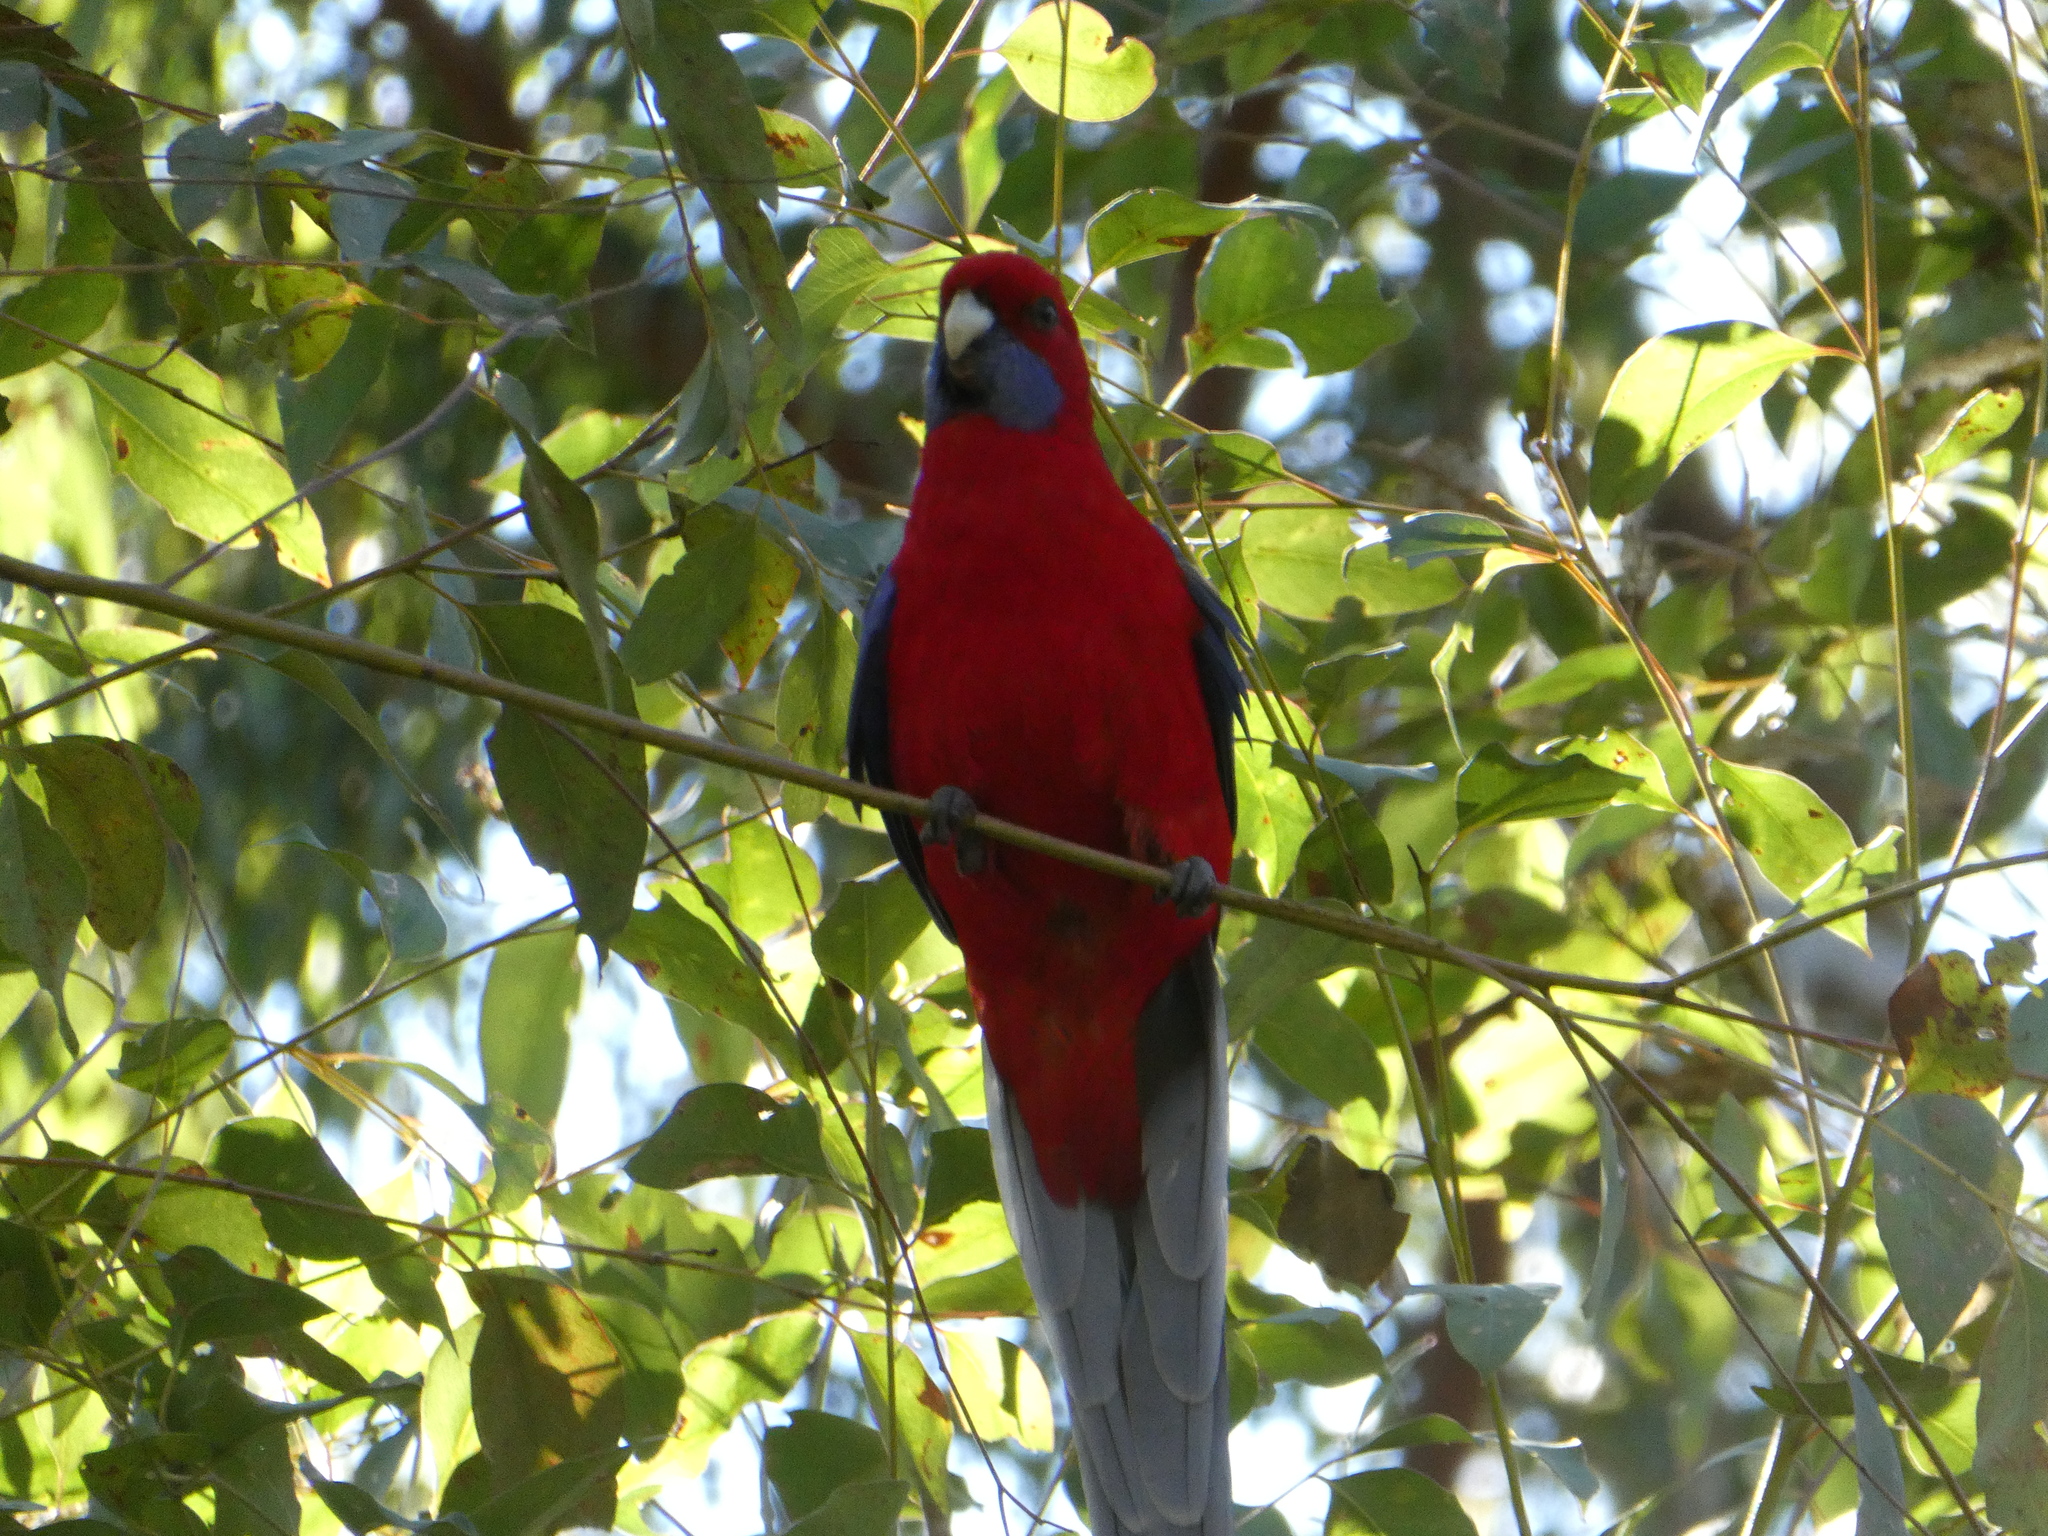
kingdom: Animalia
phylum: Chordata
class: Aves
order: Psittaciformes
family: Psittacidae
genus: Platycercus
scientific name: Platycercus elegans
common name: Crimson rosella
